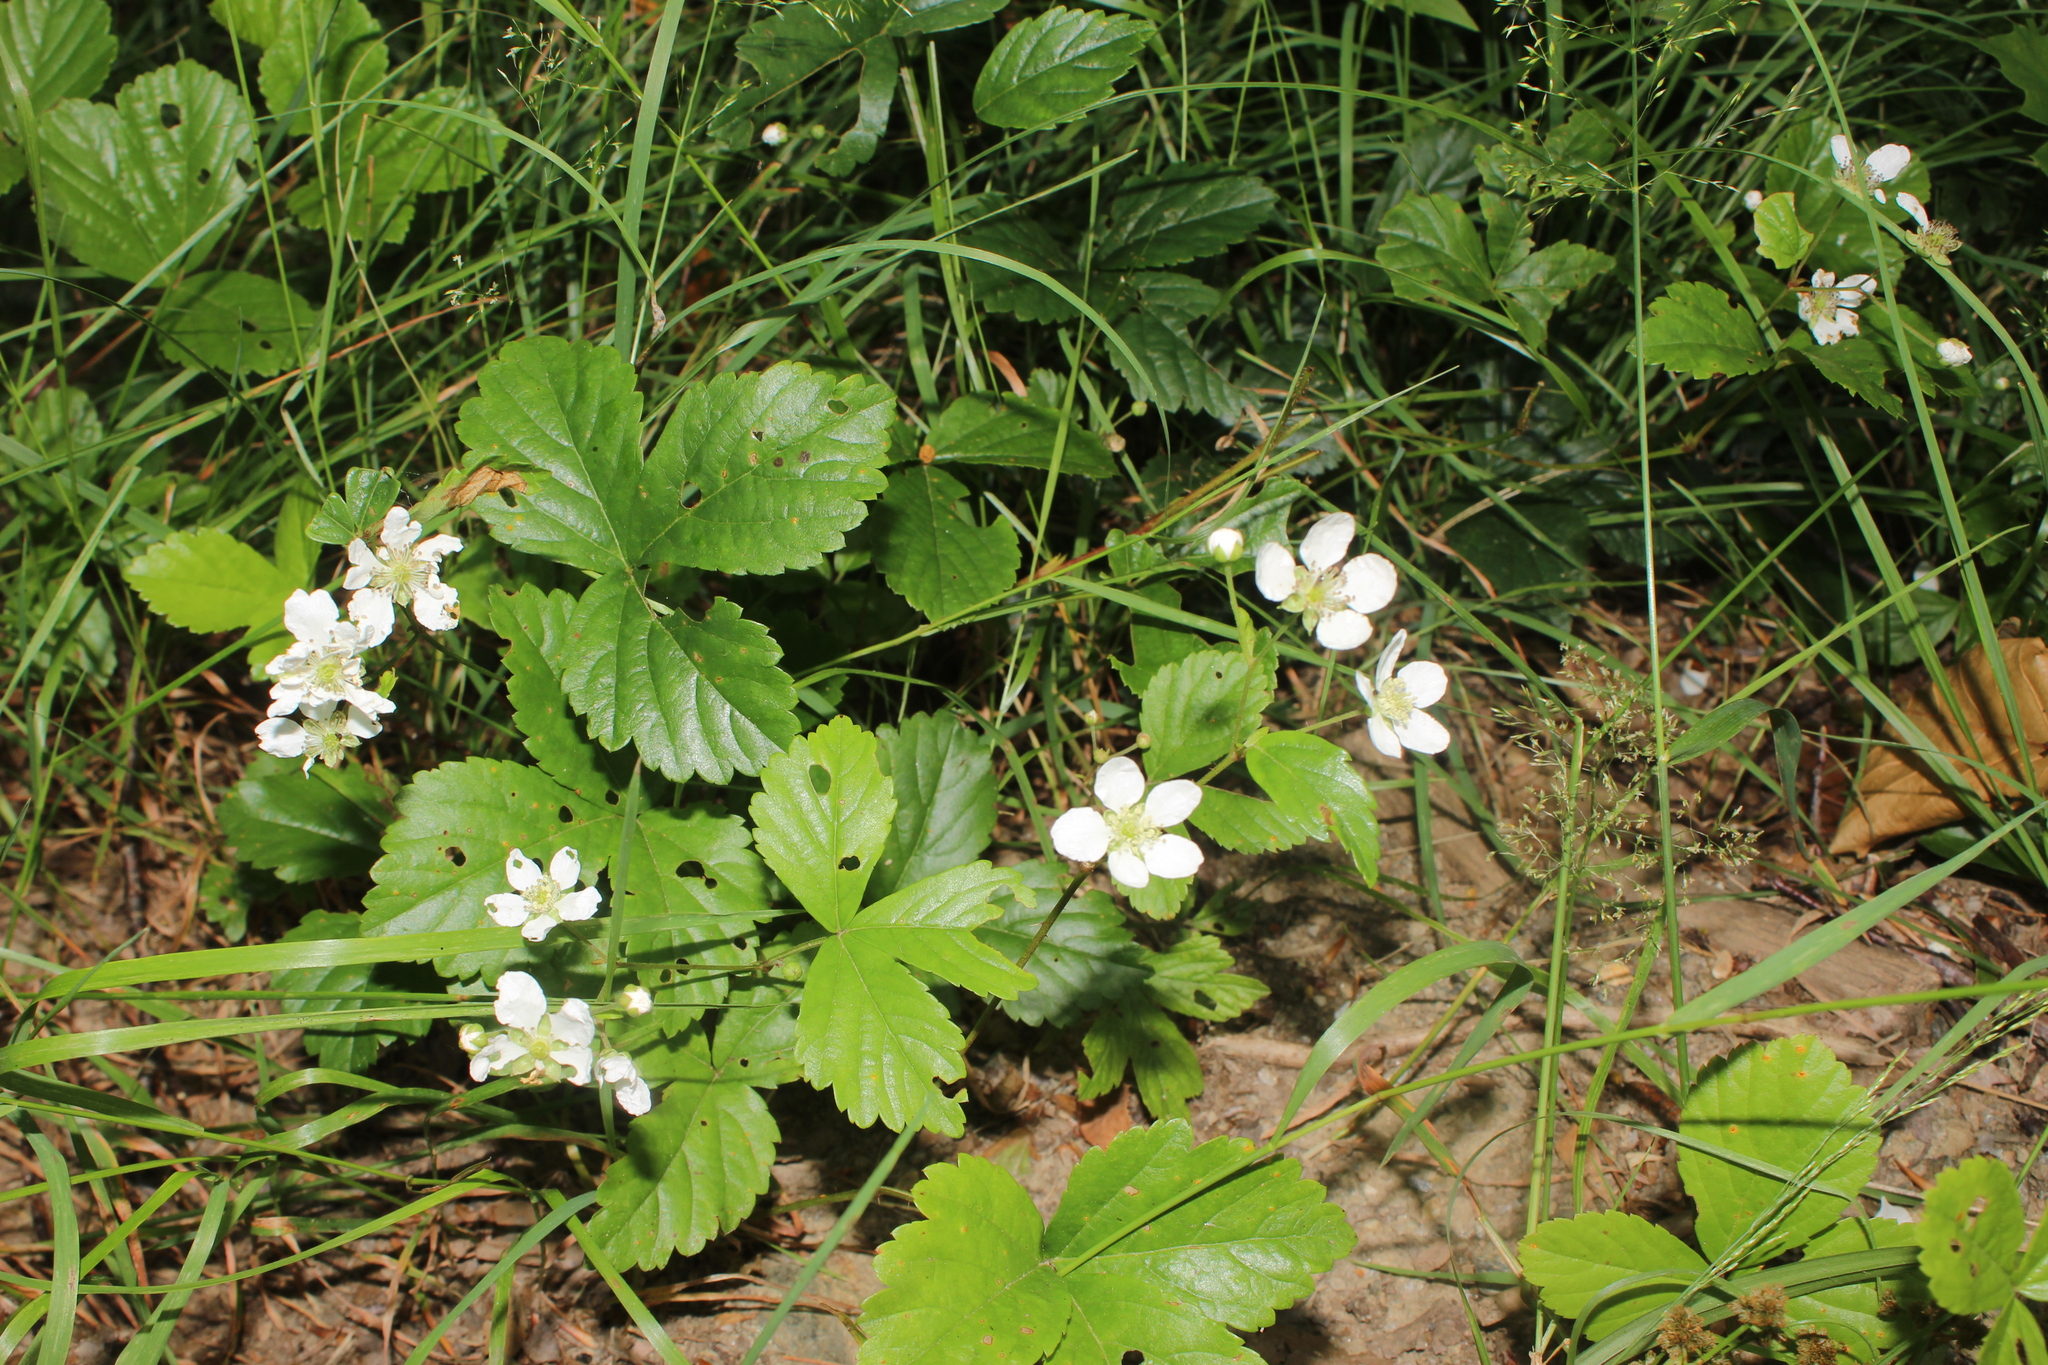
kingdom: Plantae
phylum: Tracheophyta
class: Magnoliopsida
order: Rosales
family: Rosaceae
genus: Rubus
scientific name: Rubus hispidus
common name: Running blackberry
